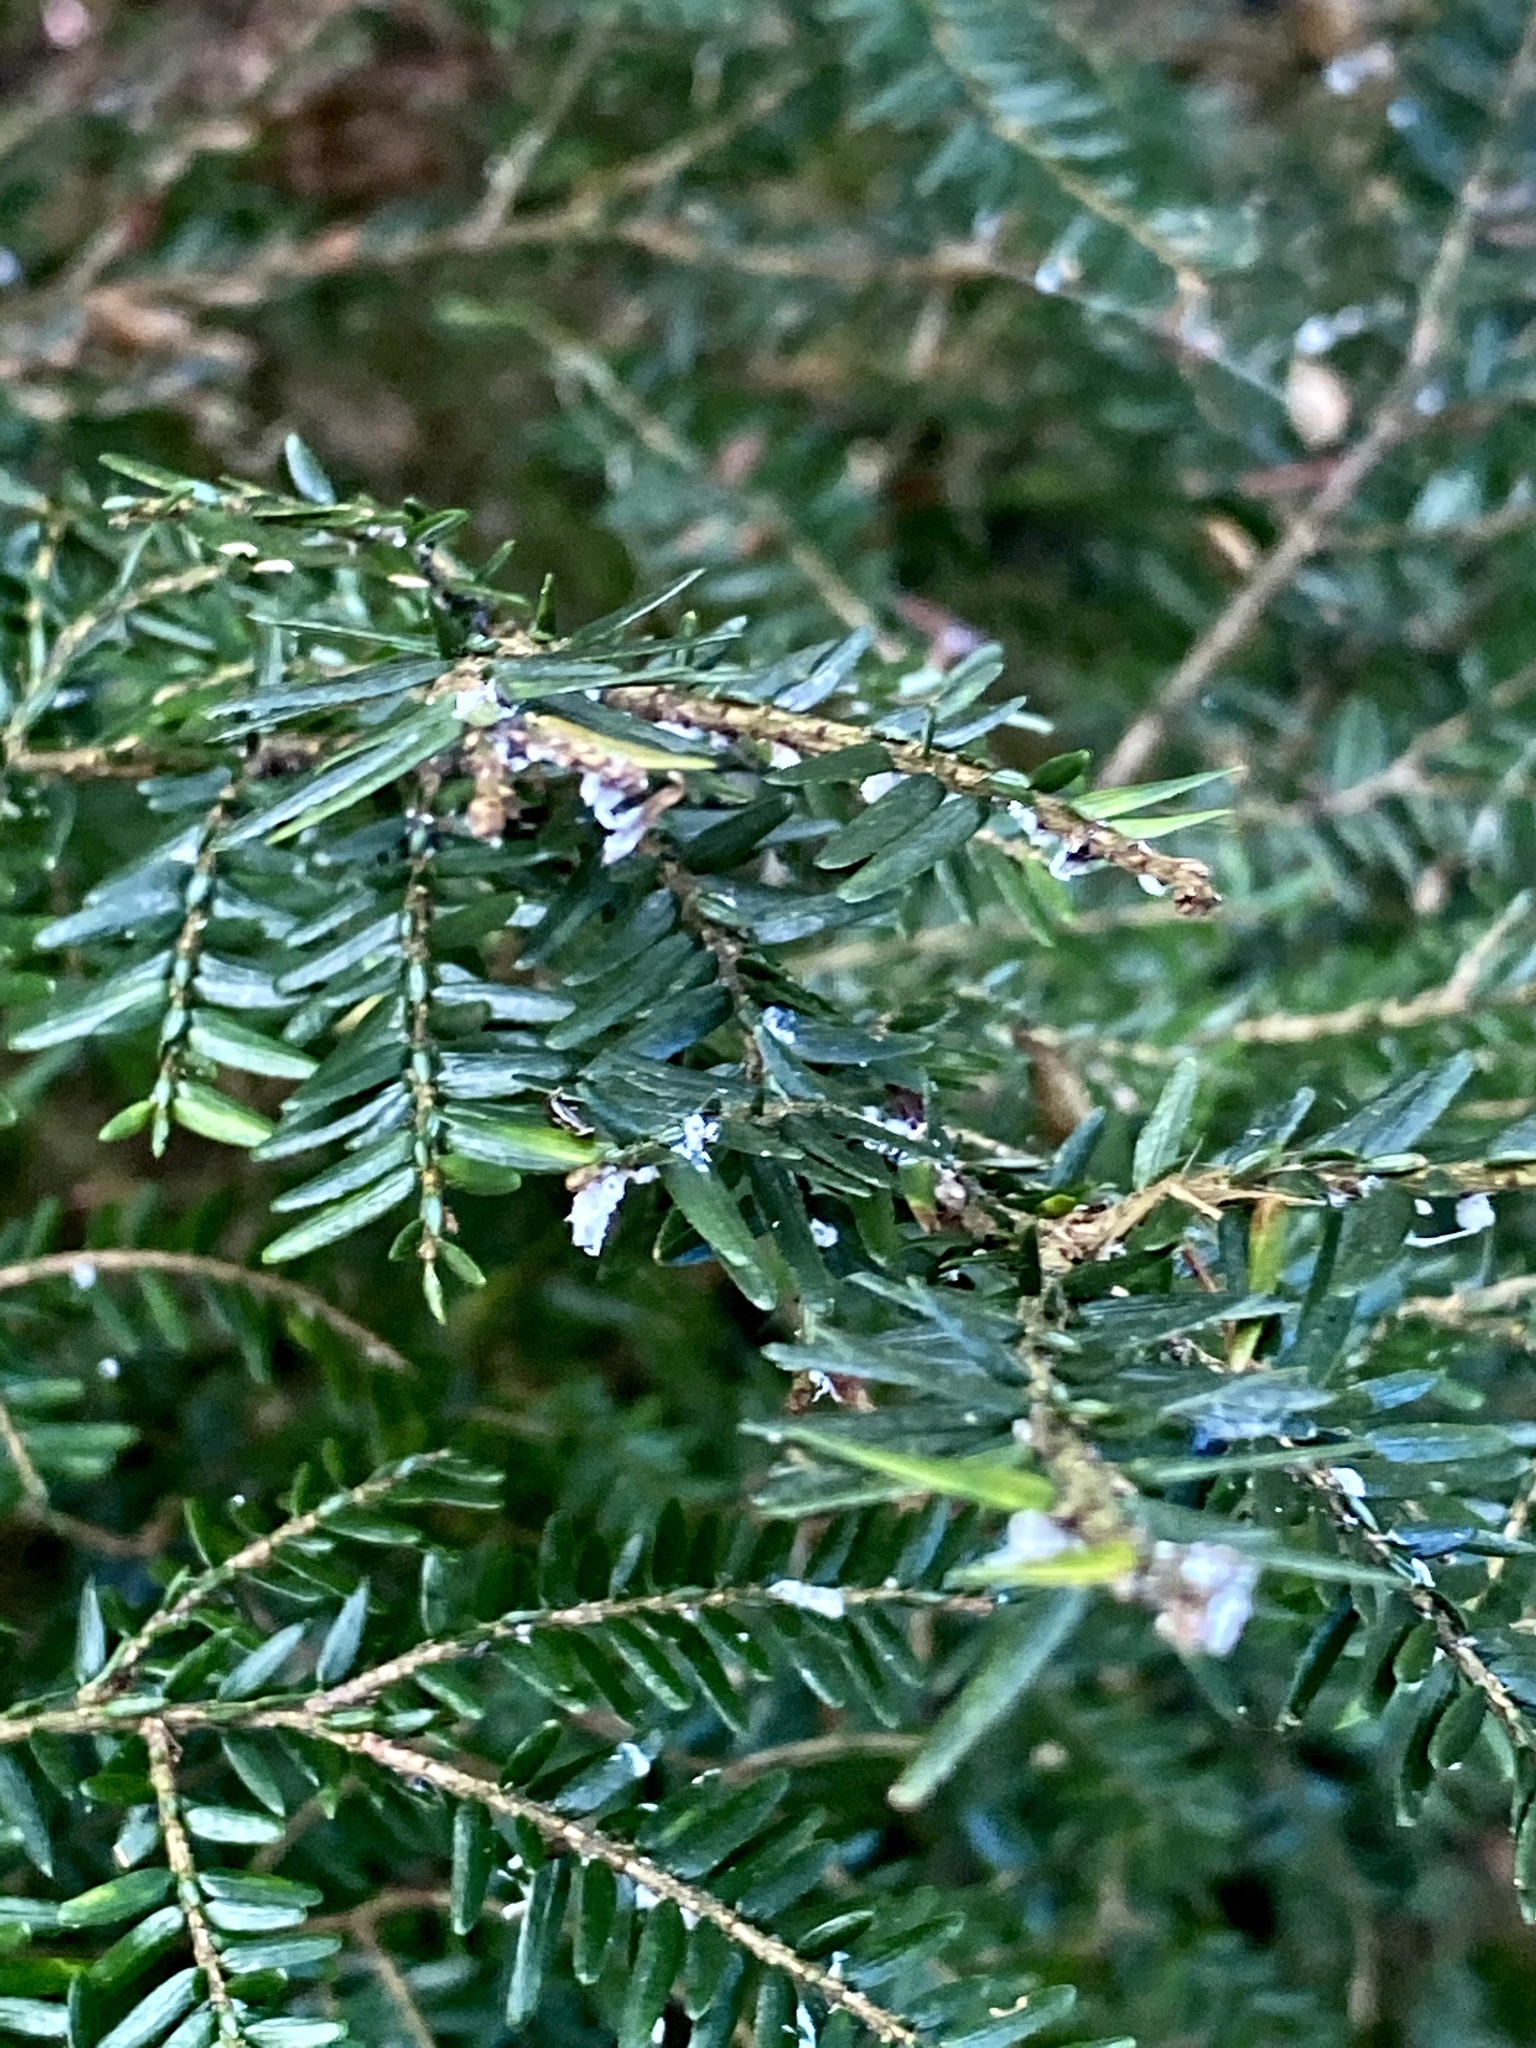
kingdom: Animalia
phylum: Arthropoda
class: Insecta
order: Hemiptera
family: Adelgidae
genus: Adelges
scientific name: Adelges tsugae
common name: Hemlock woolly adelgid
